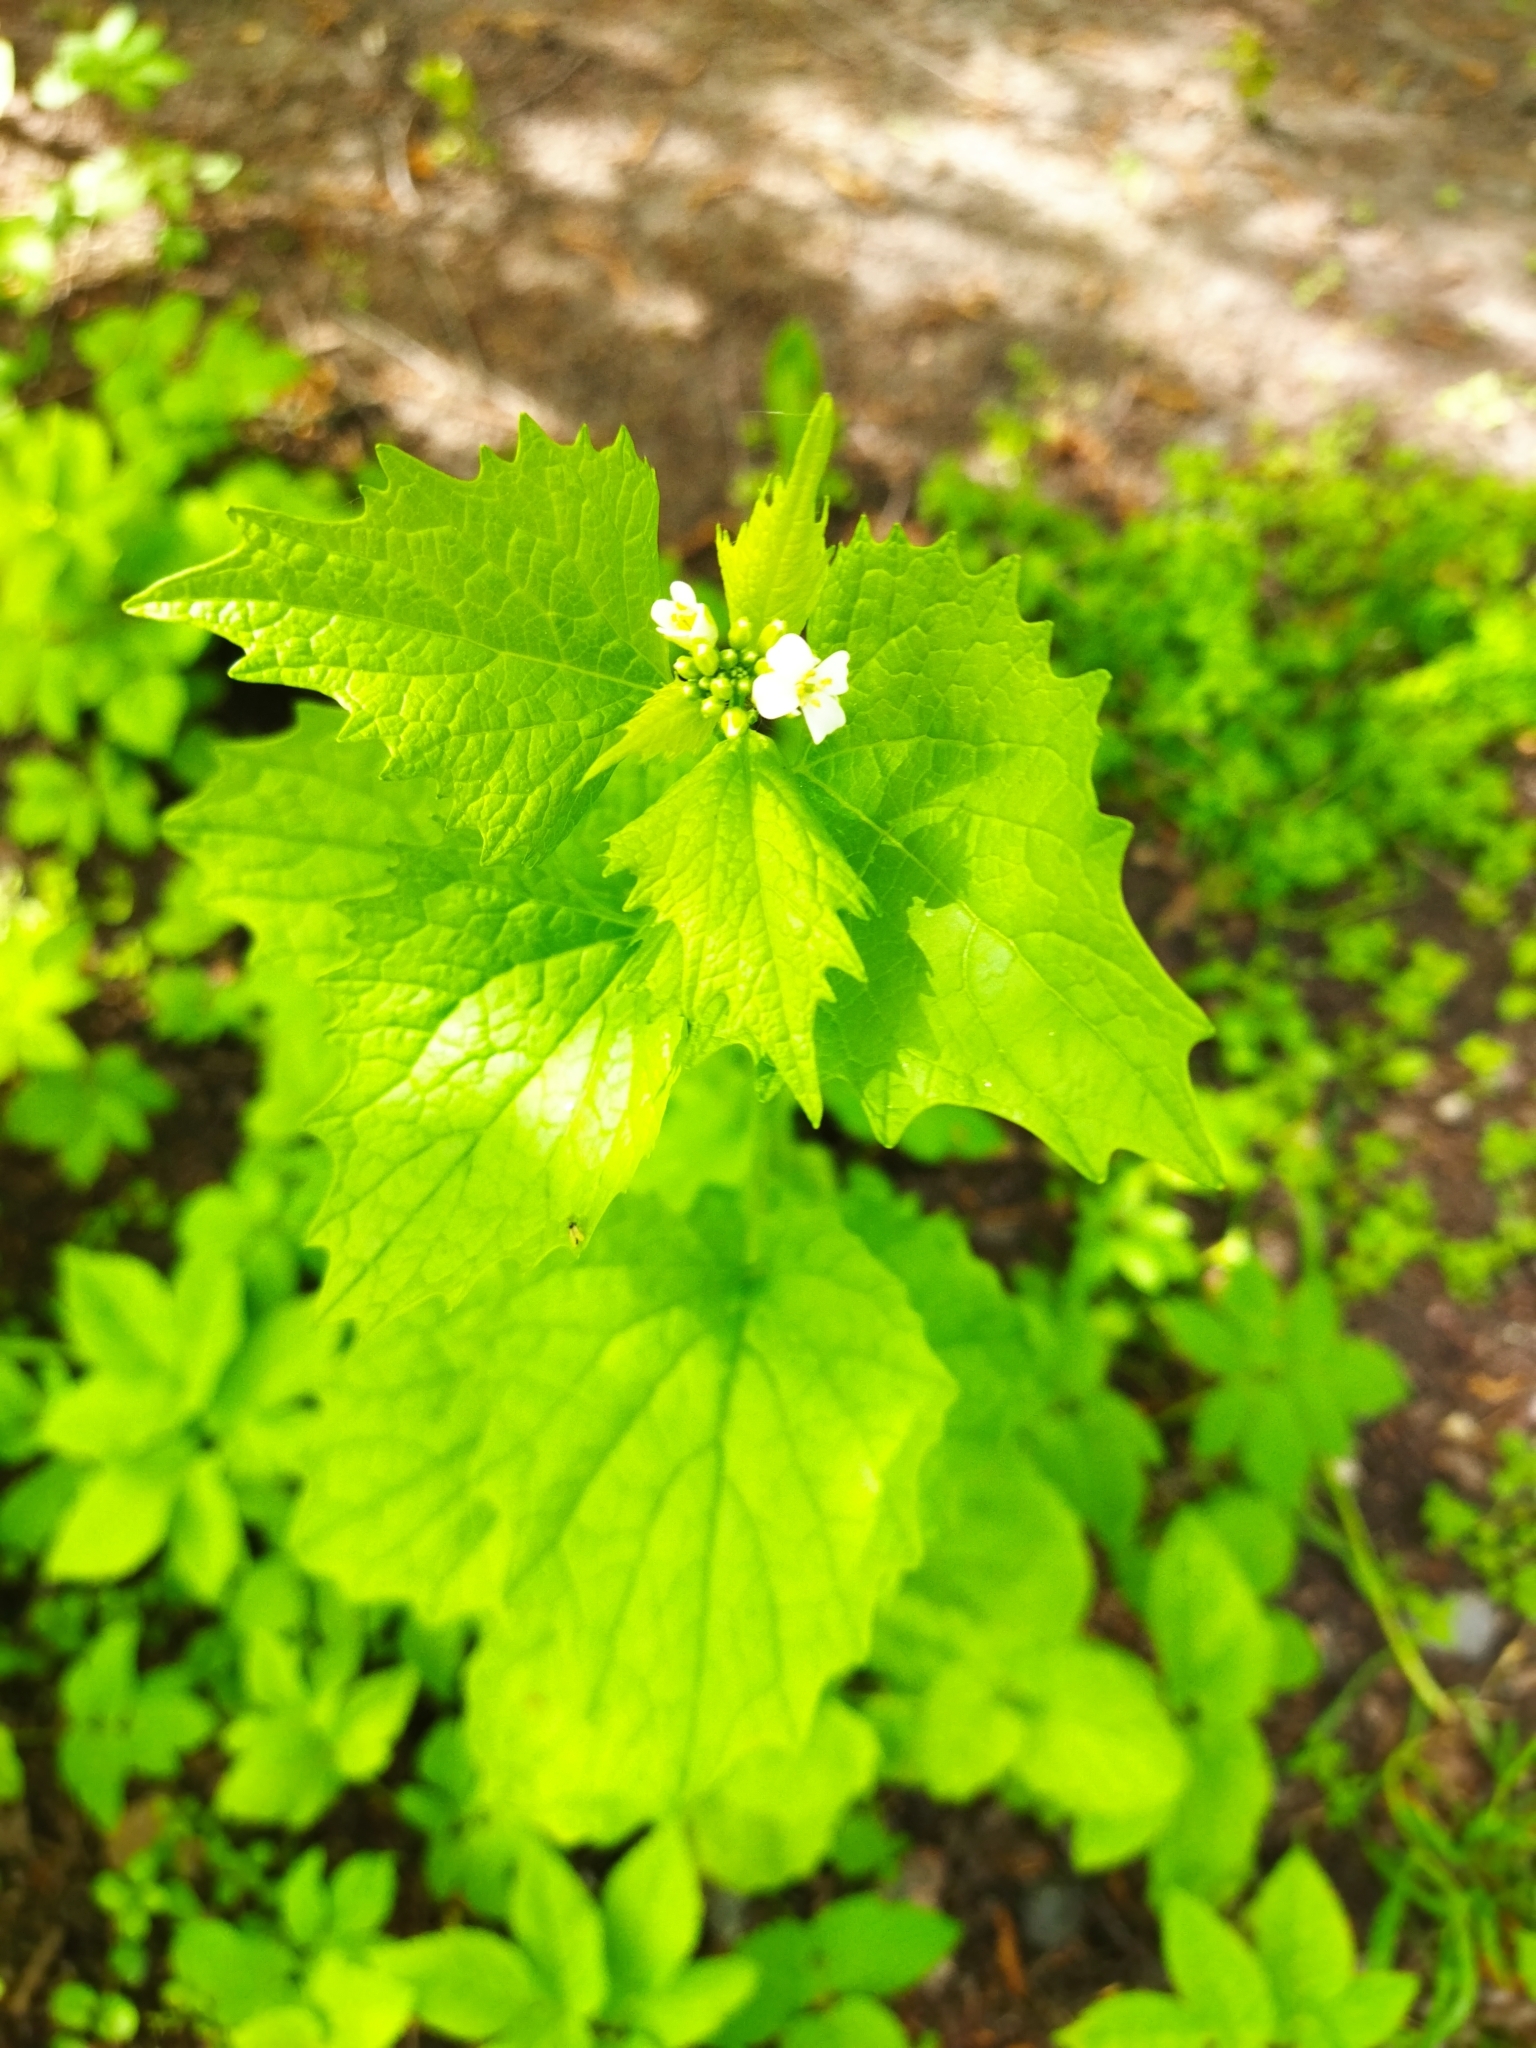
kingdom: Plantae
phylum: Tracheophyta
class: Magnoliopsida
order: Brassicales
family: Brassicaceae
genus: Alliaria
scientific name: Alliaria petiolata
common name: Garlic mustard
